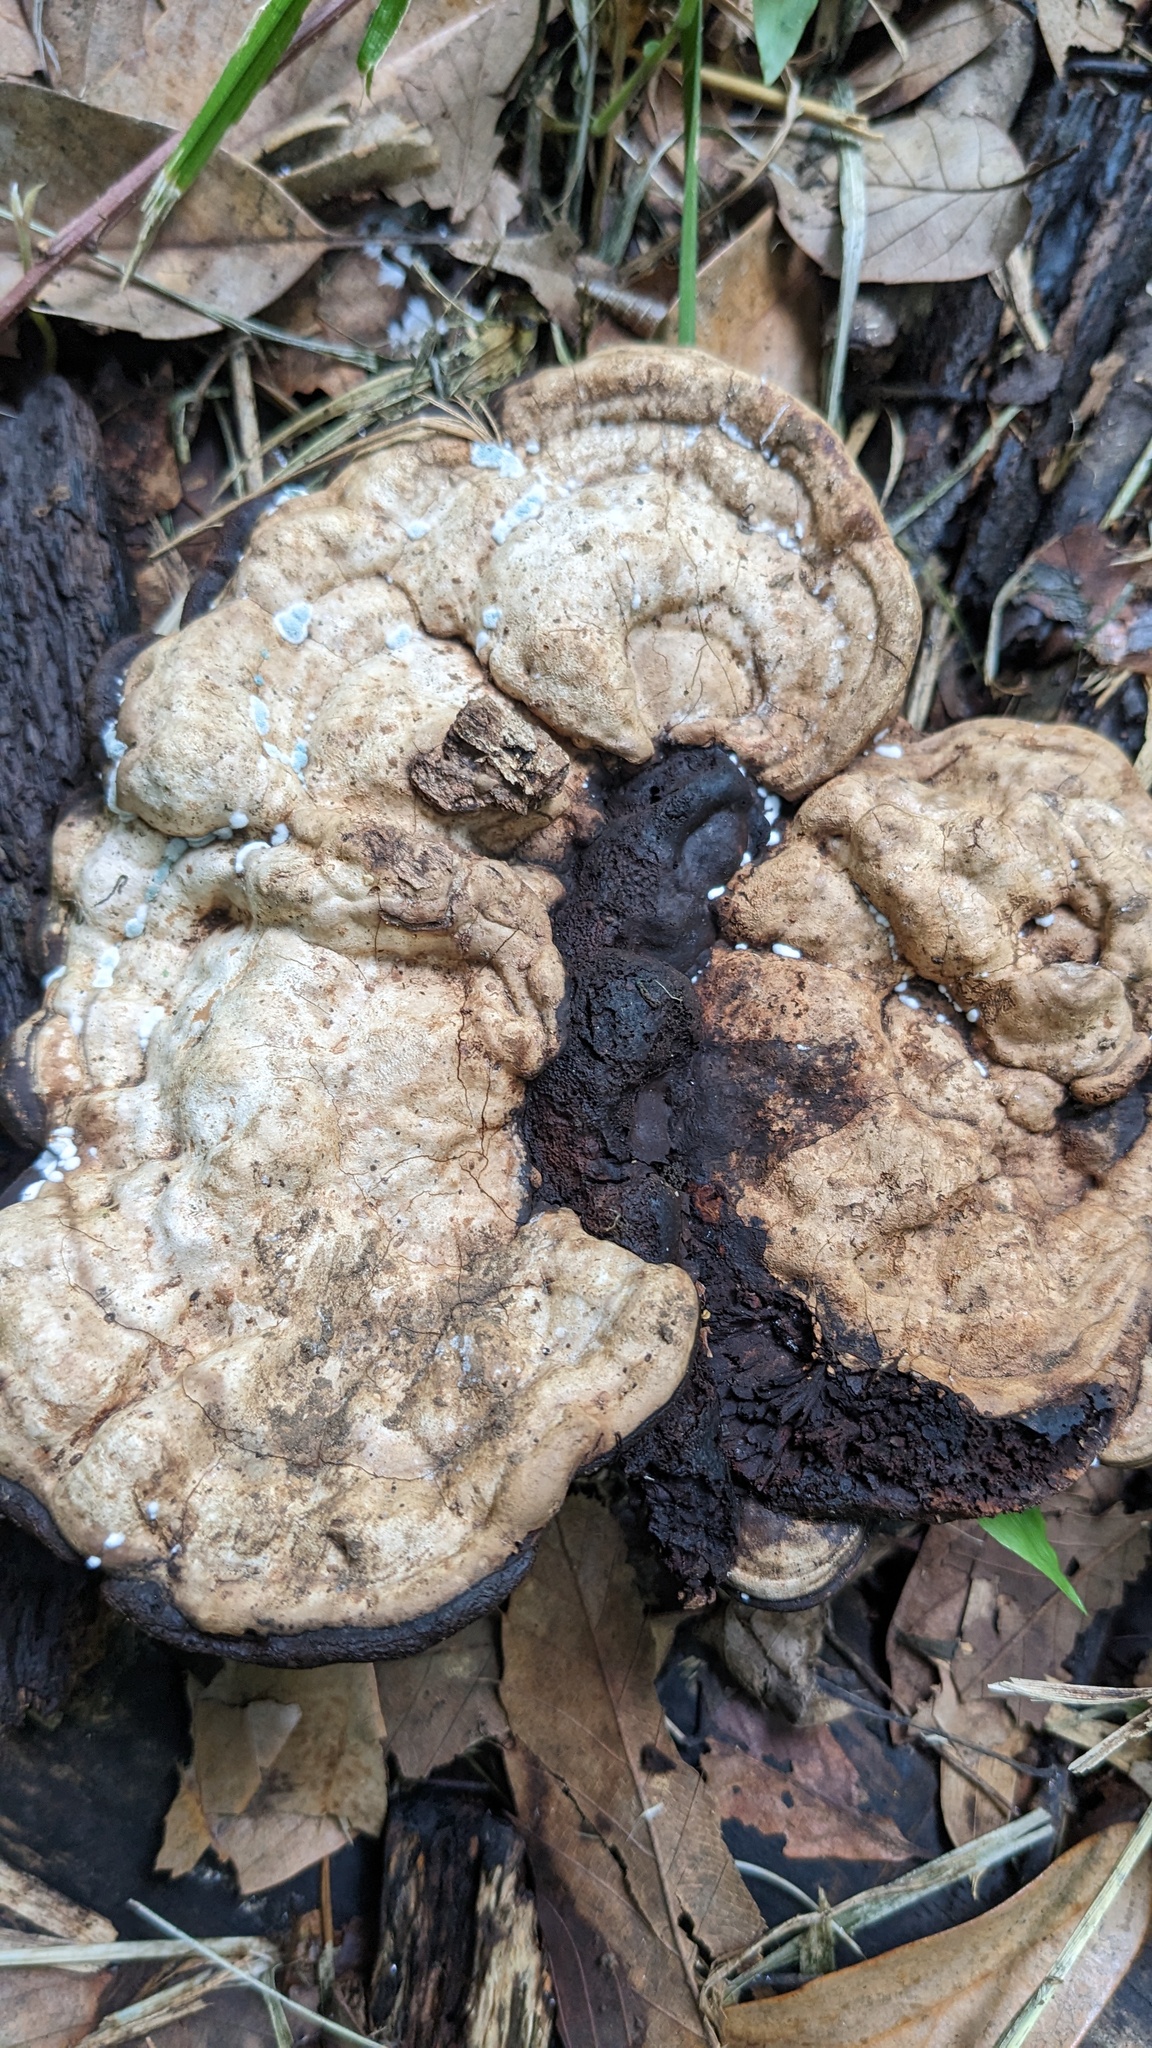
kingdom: Fungi
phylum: Basidiomycota
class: Agaricomycetes
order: Polyporales
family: Polyporaceae
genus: Ganoderma
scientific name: Ganoderma applanatum
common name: Artist's bracket
